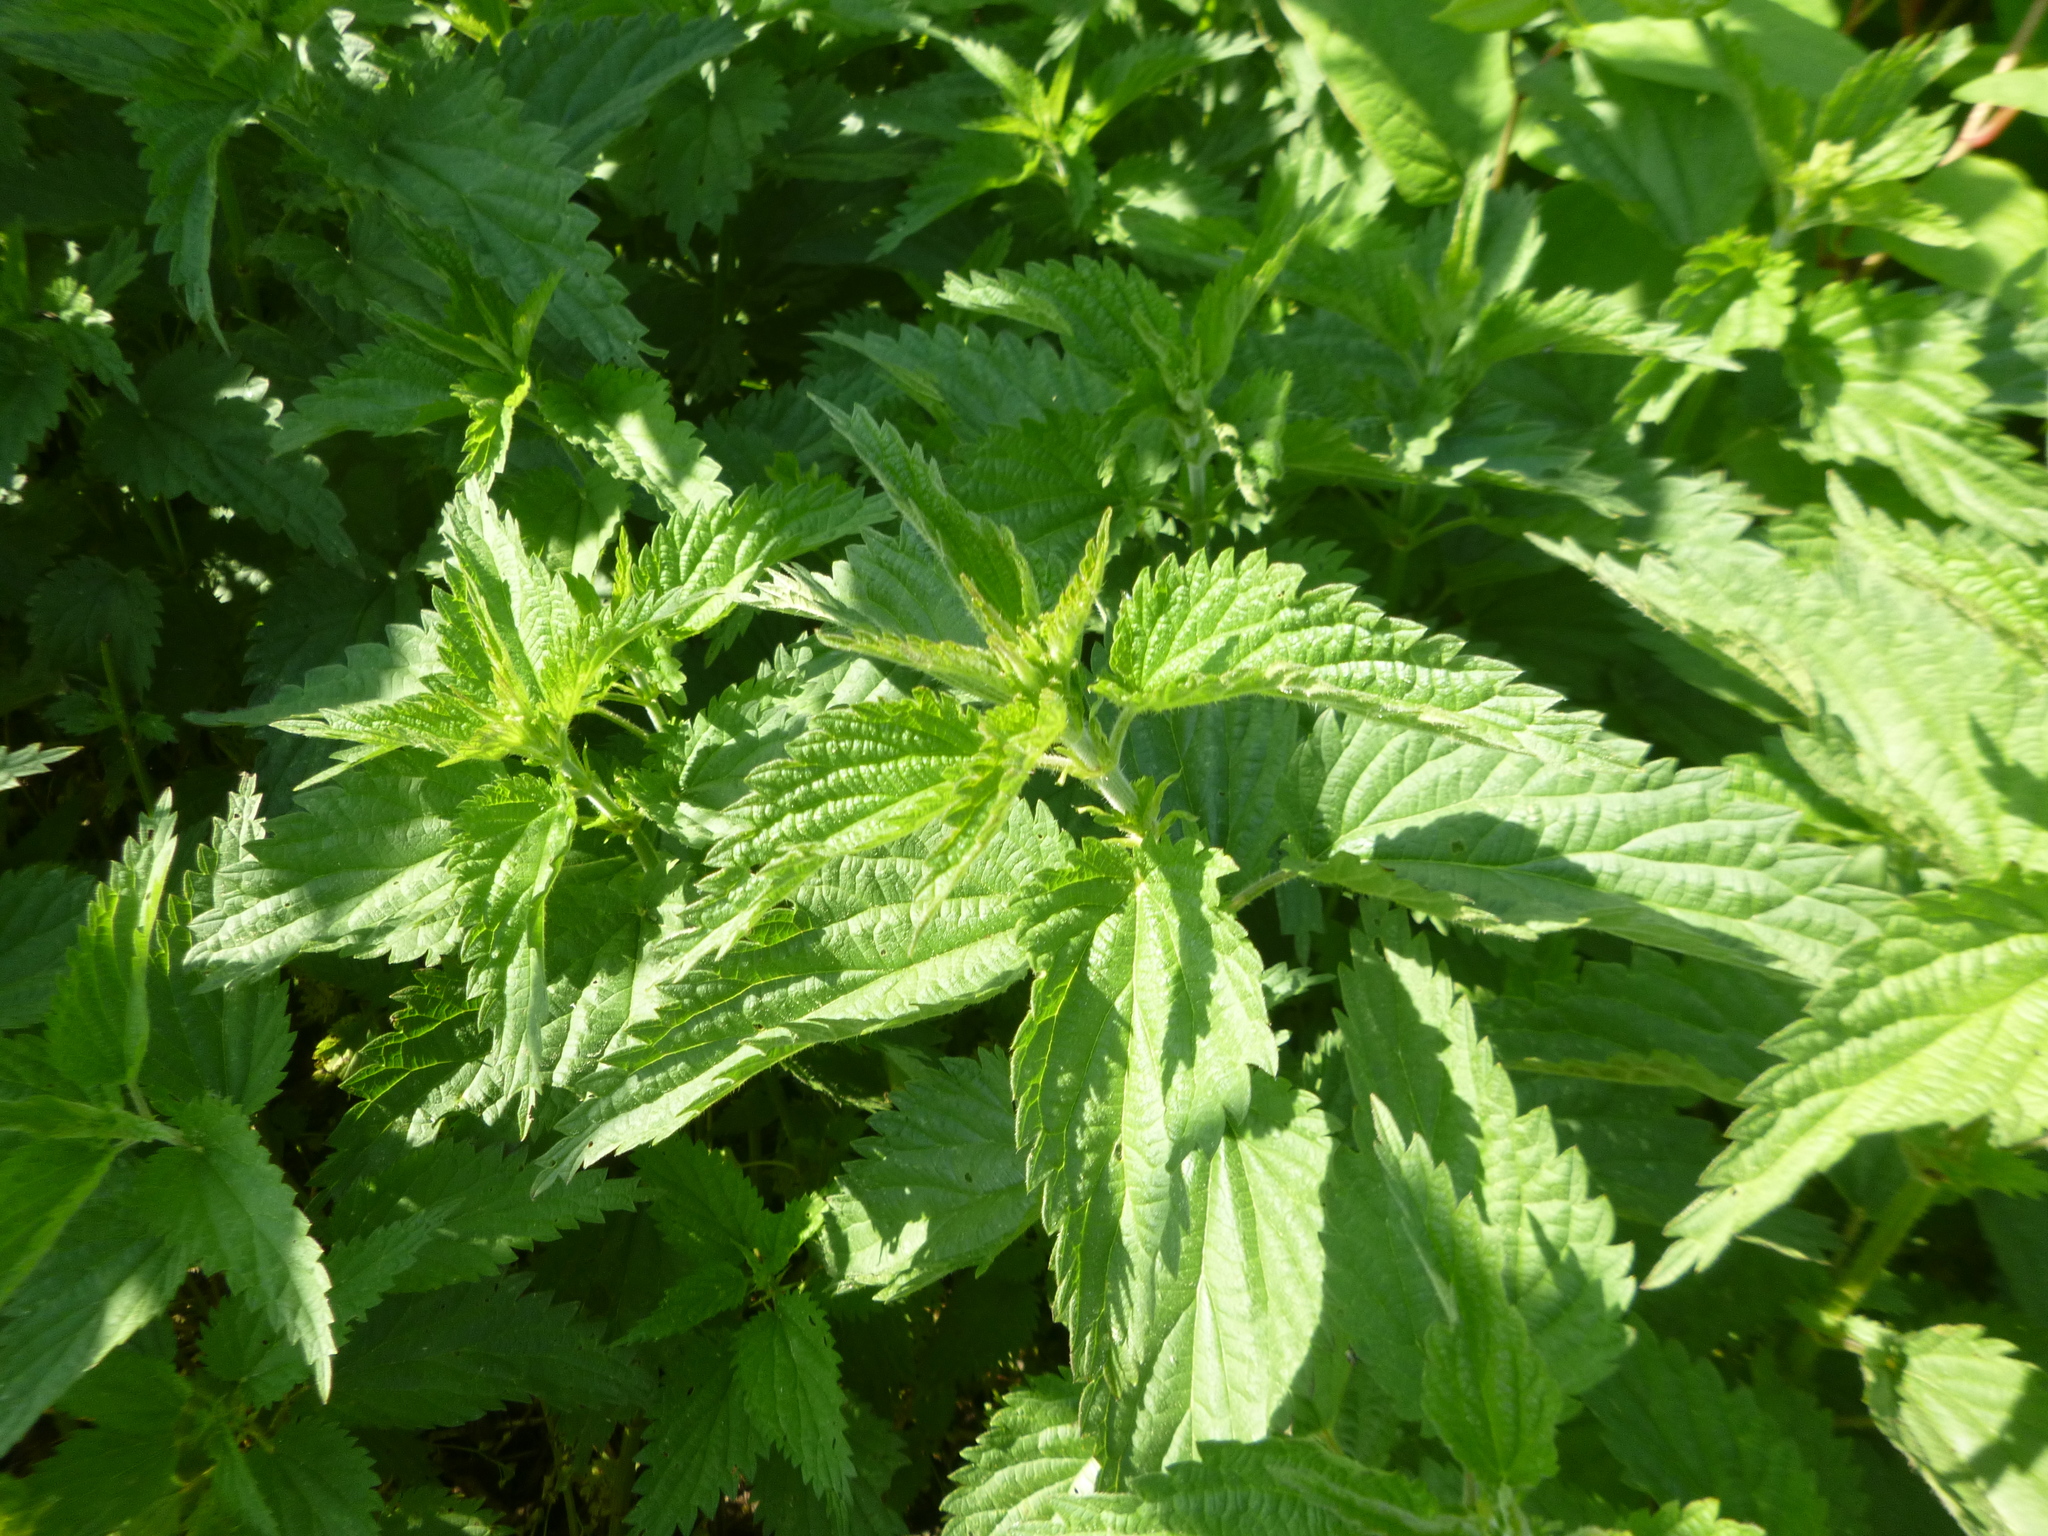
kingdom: Plantae
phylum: Tracheophyta
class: Magnoliopsida
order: Rosales
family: Urticaceae
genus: Urtica
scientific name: Urtica dioica
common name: Common nettle
